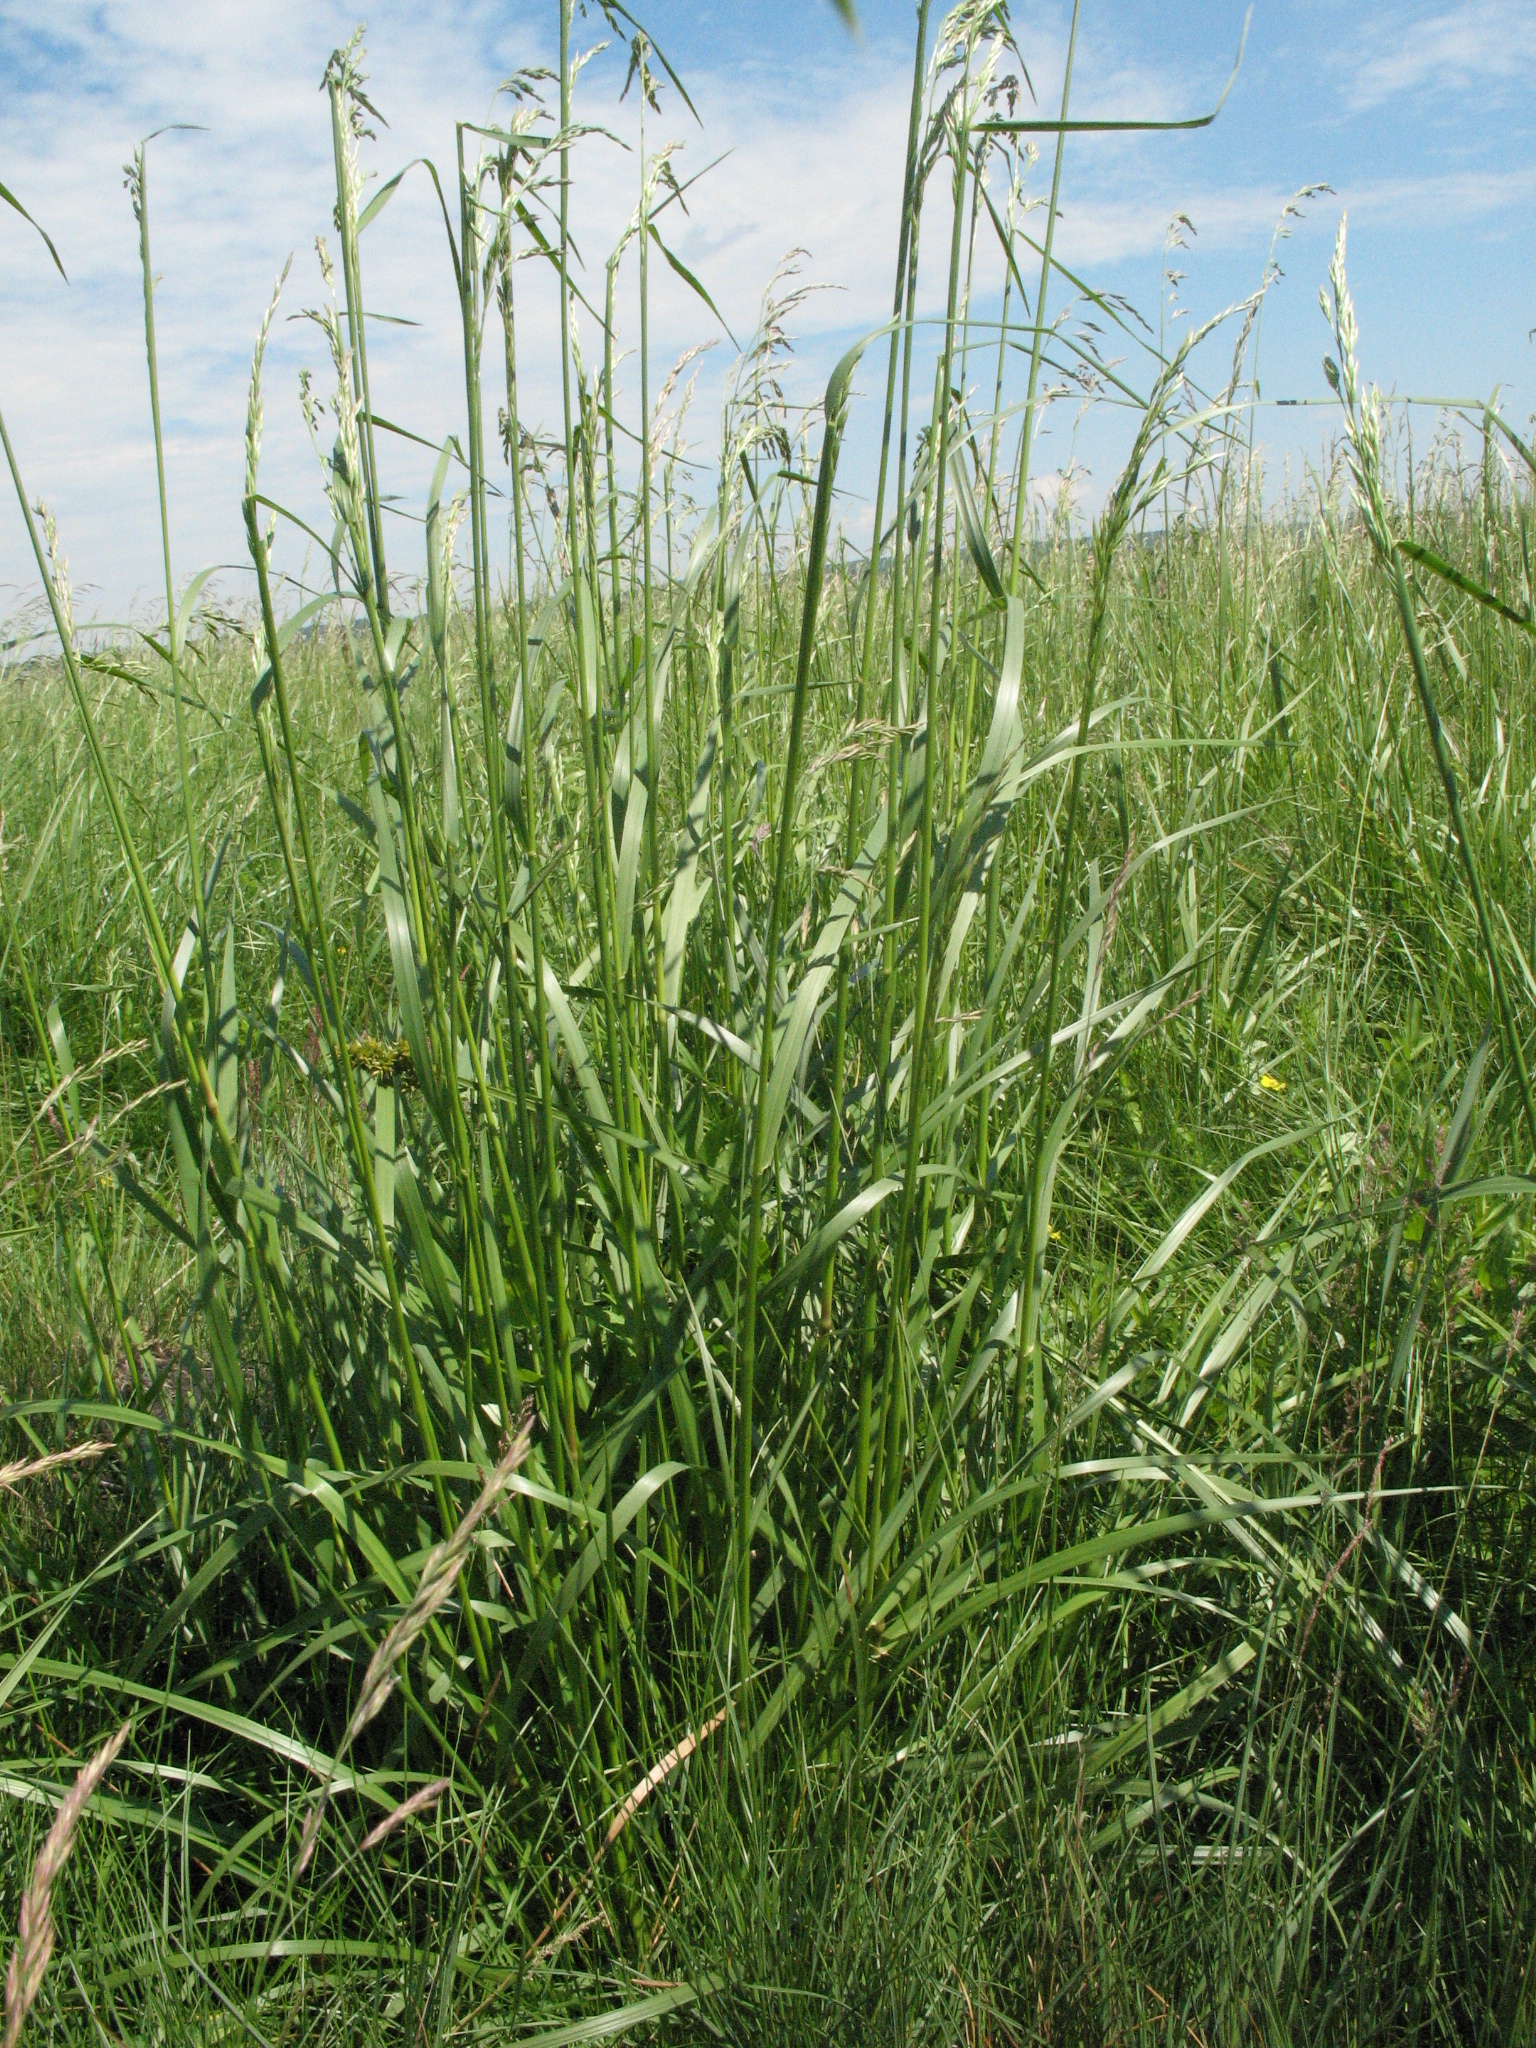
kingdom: Plantae
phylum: Tracheophyta
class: Liliopsida
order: Poales
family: Poaceae
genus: Lolium
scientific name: Lolium arundinaceum
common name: Reed fescue
